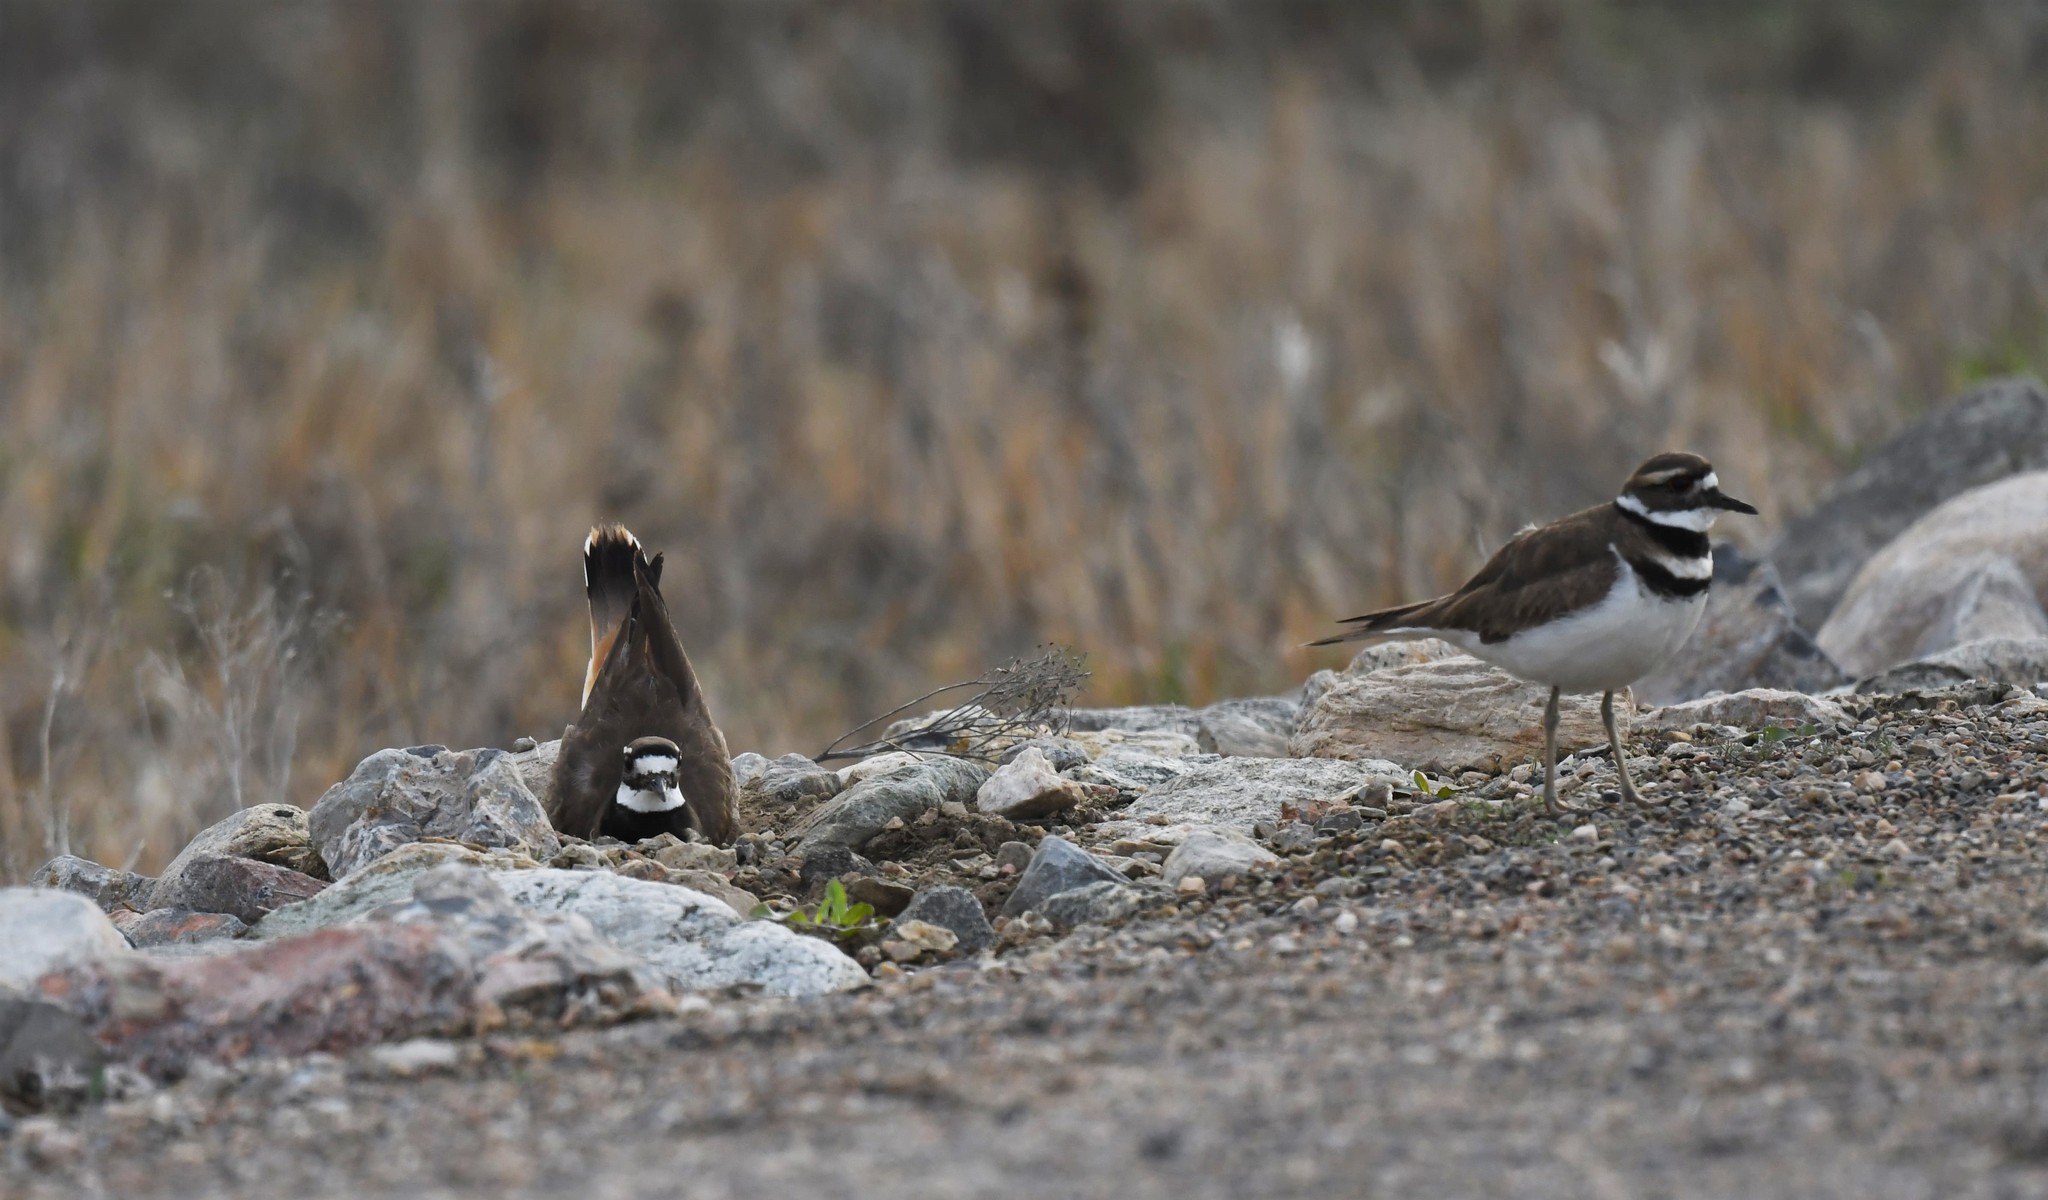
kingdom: Animalia
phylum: Chordata
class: Aves
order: Charadriiformes
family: Charadriidae
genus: Charadrius
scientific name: Charadrius vociferus
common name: Killdeer
